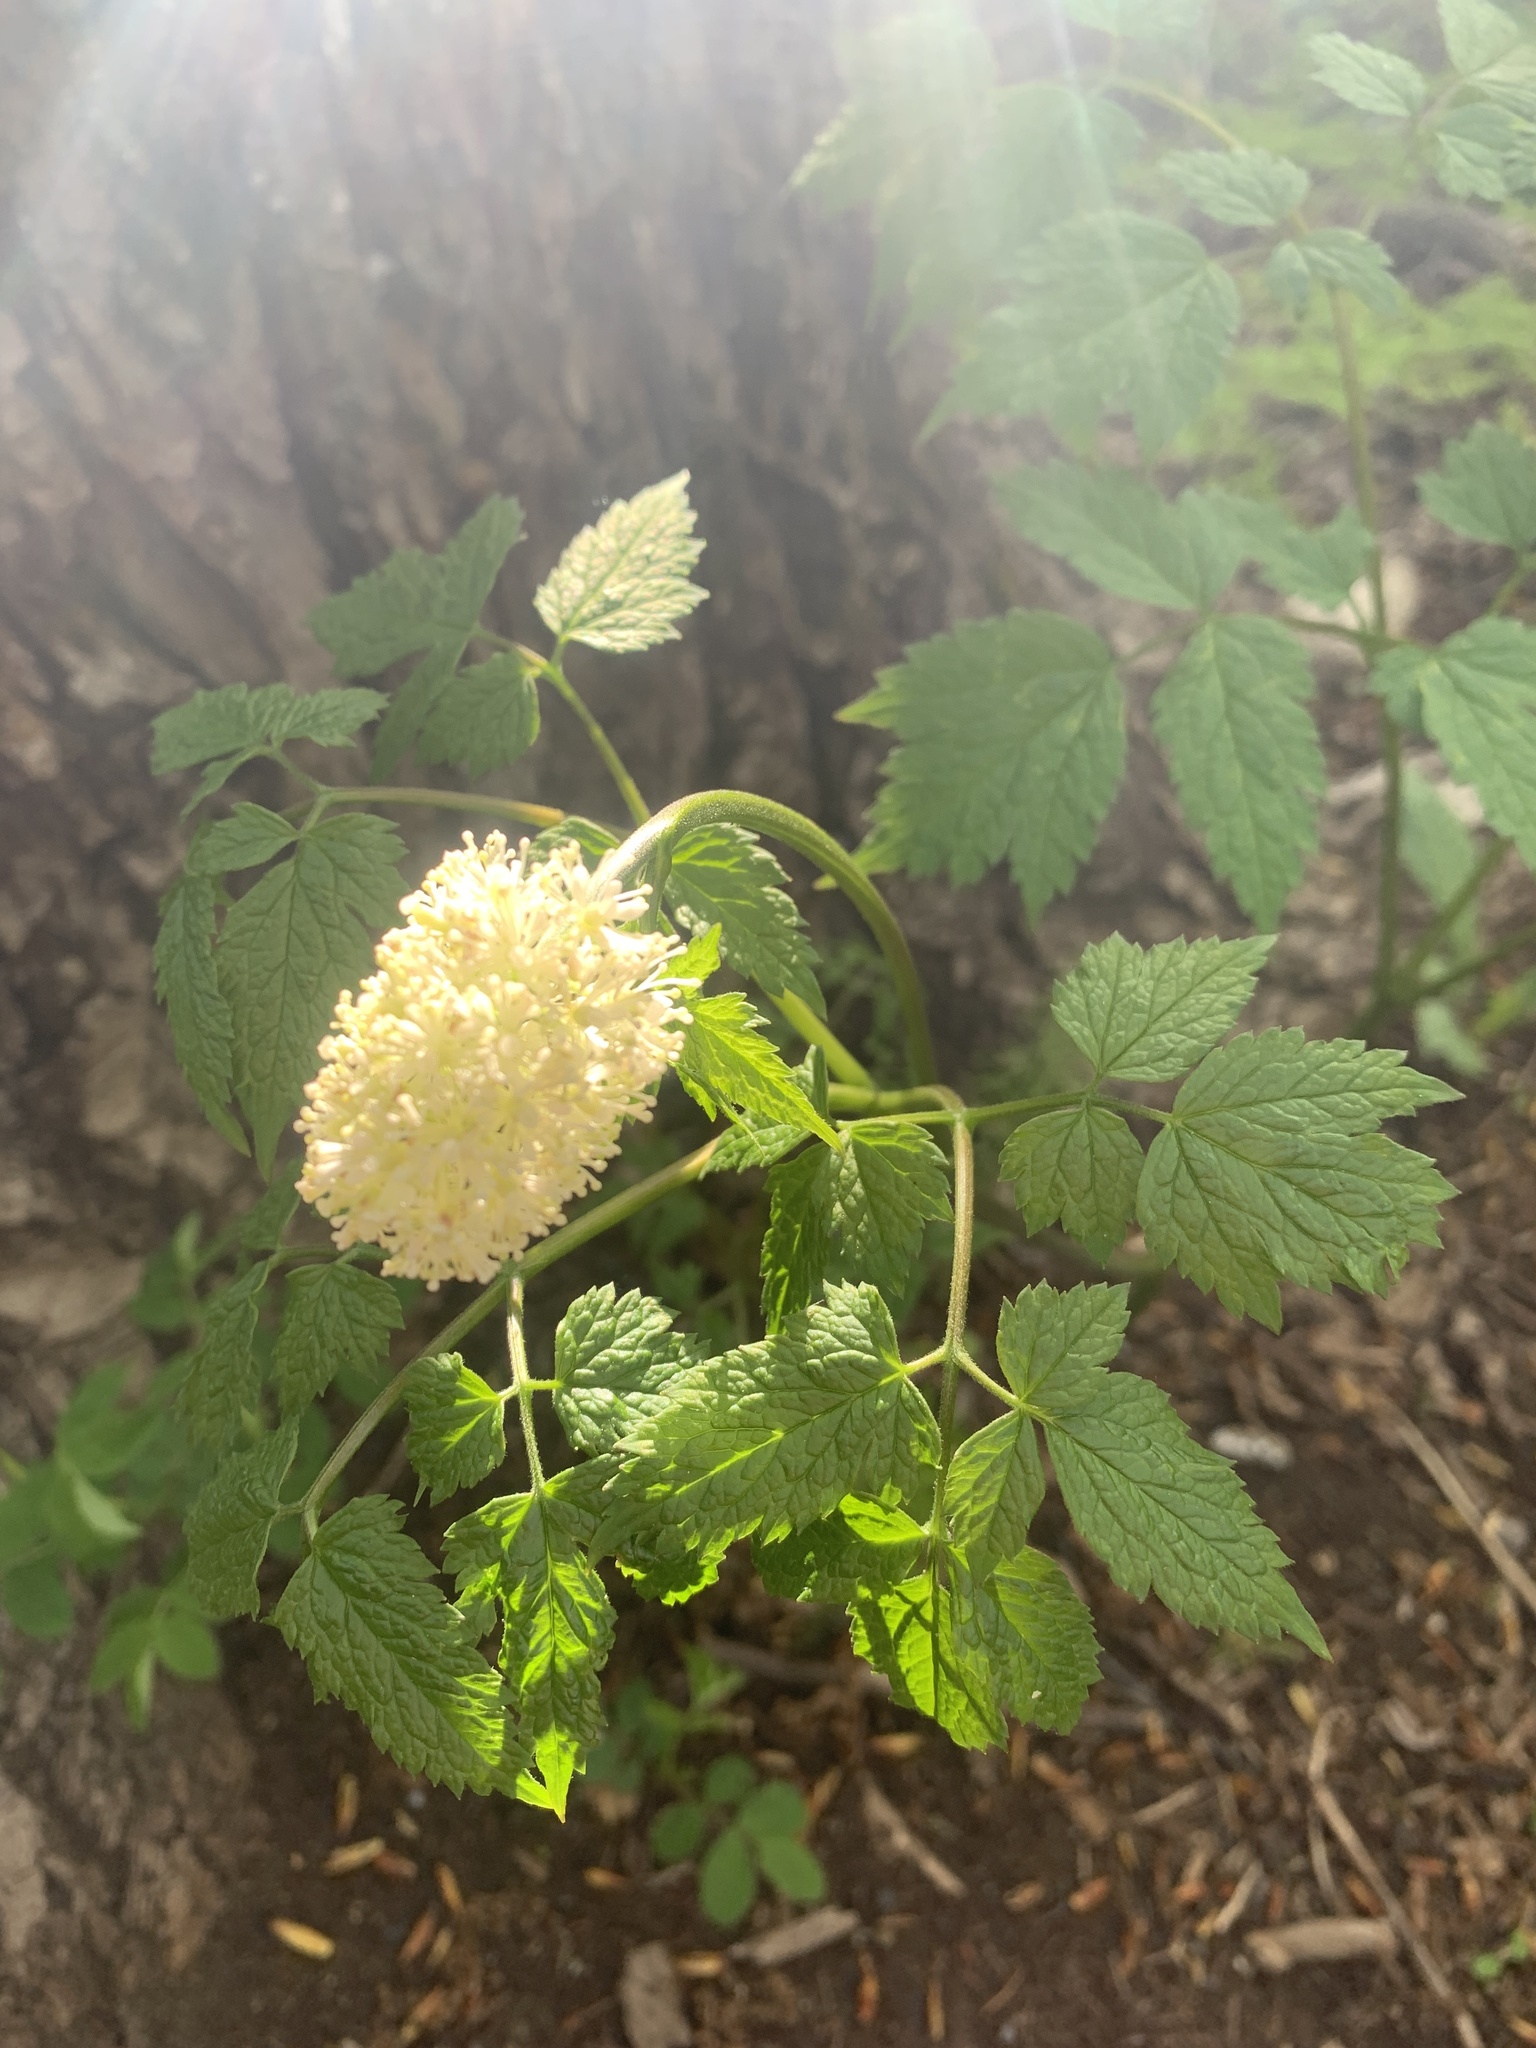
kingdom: Plantae
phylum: Tracheophyta
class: Magnoliopsida
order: Ranunculales
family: Ranunculaceae
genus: Actaea
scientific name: Actaea rubra
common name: Red baneberry
